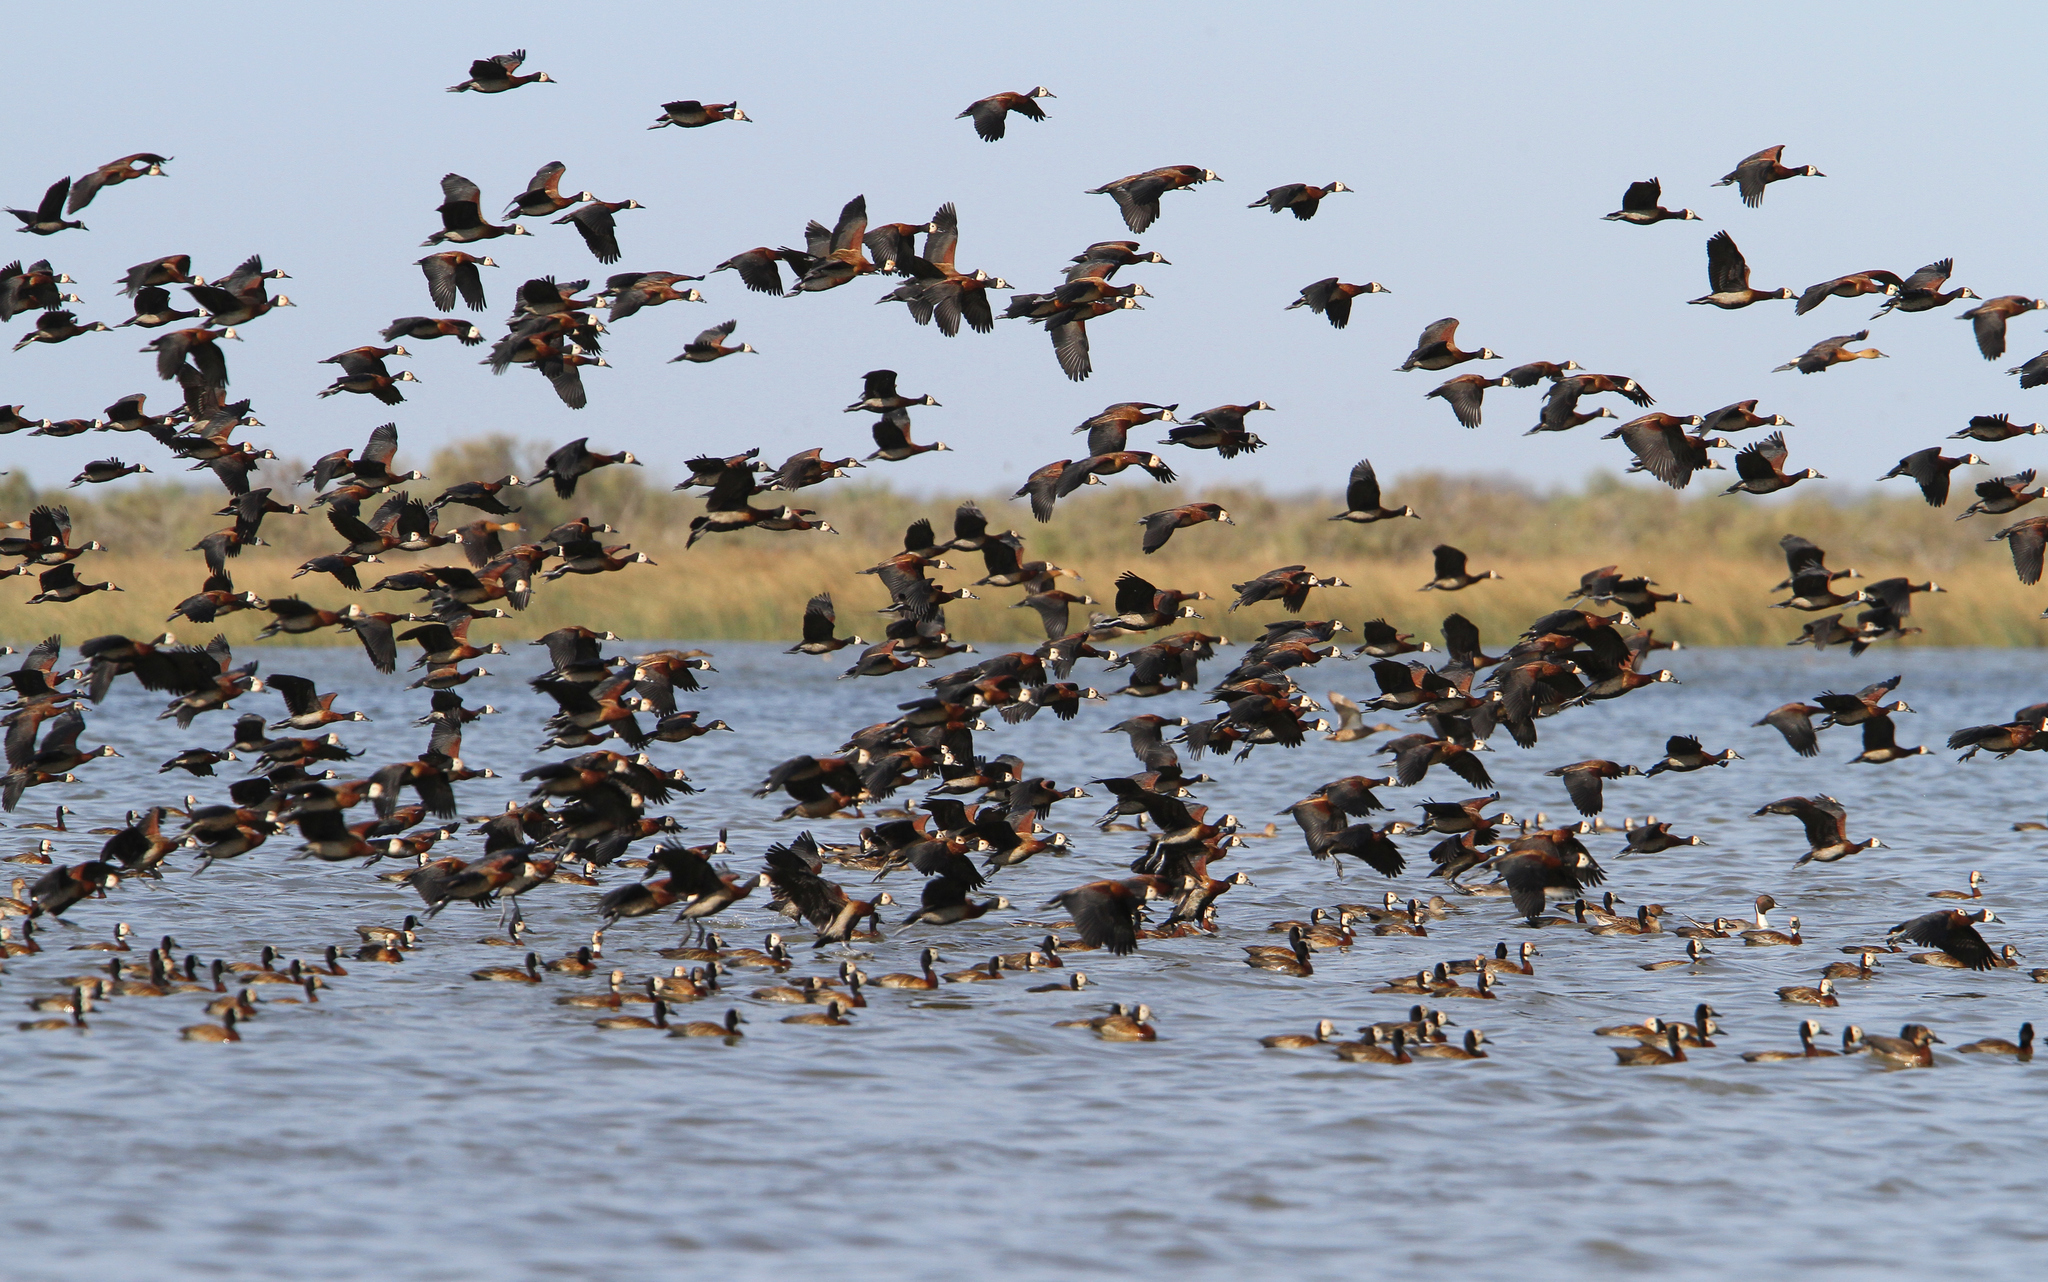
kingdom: Animalia
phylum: Chordata
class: Aves
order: Anseriformes
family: Anatidae
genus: Dendrocygna
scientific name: Dendrocygna viduata
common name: White-faced whistling duck
